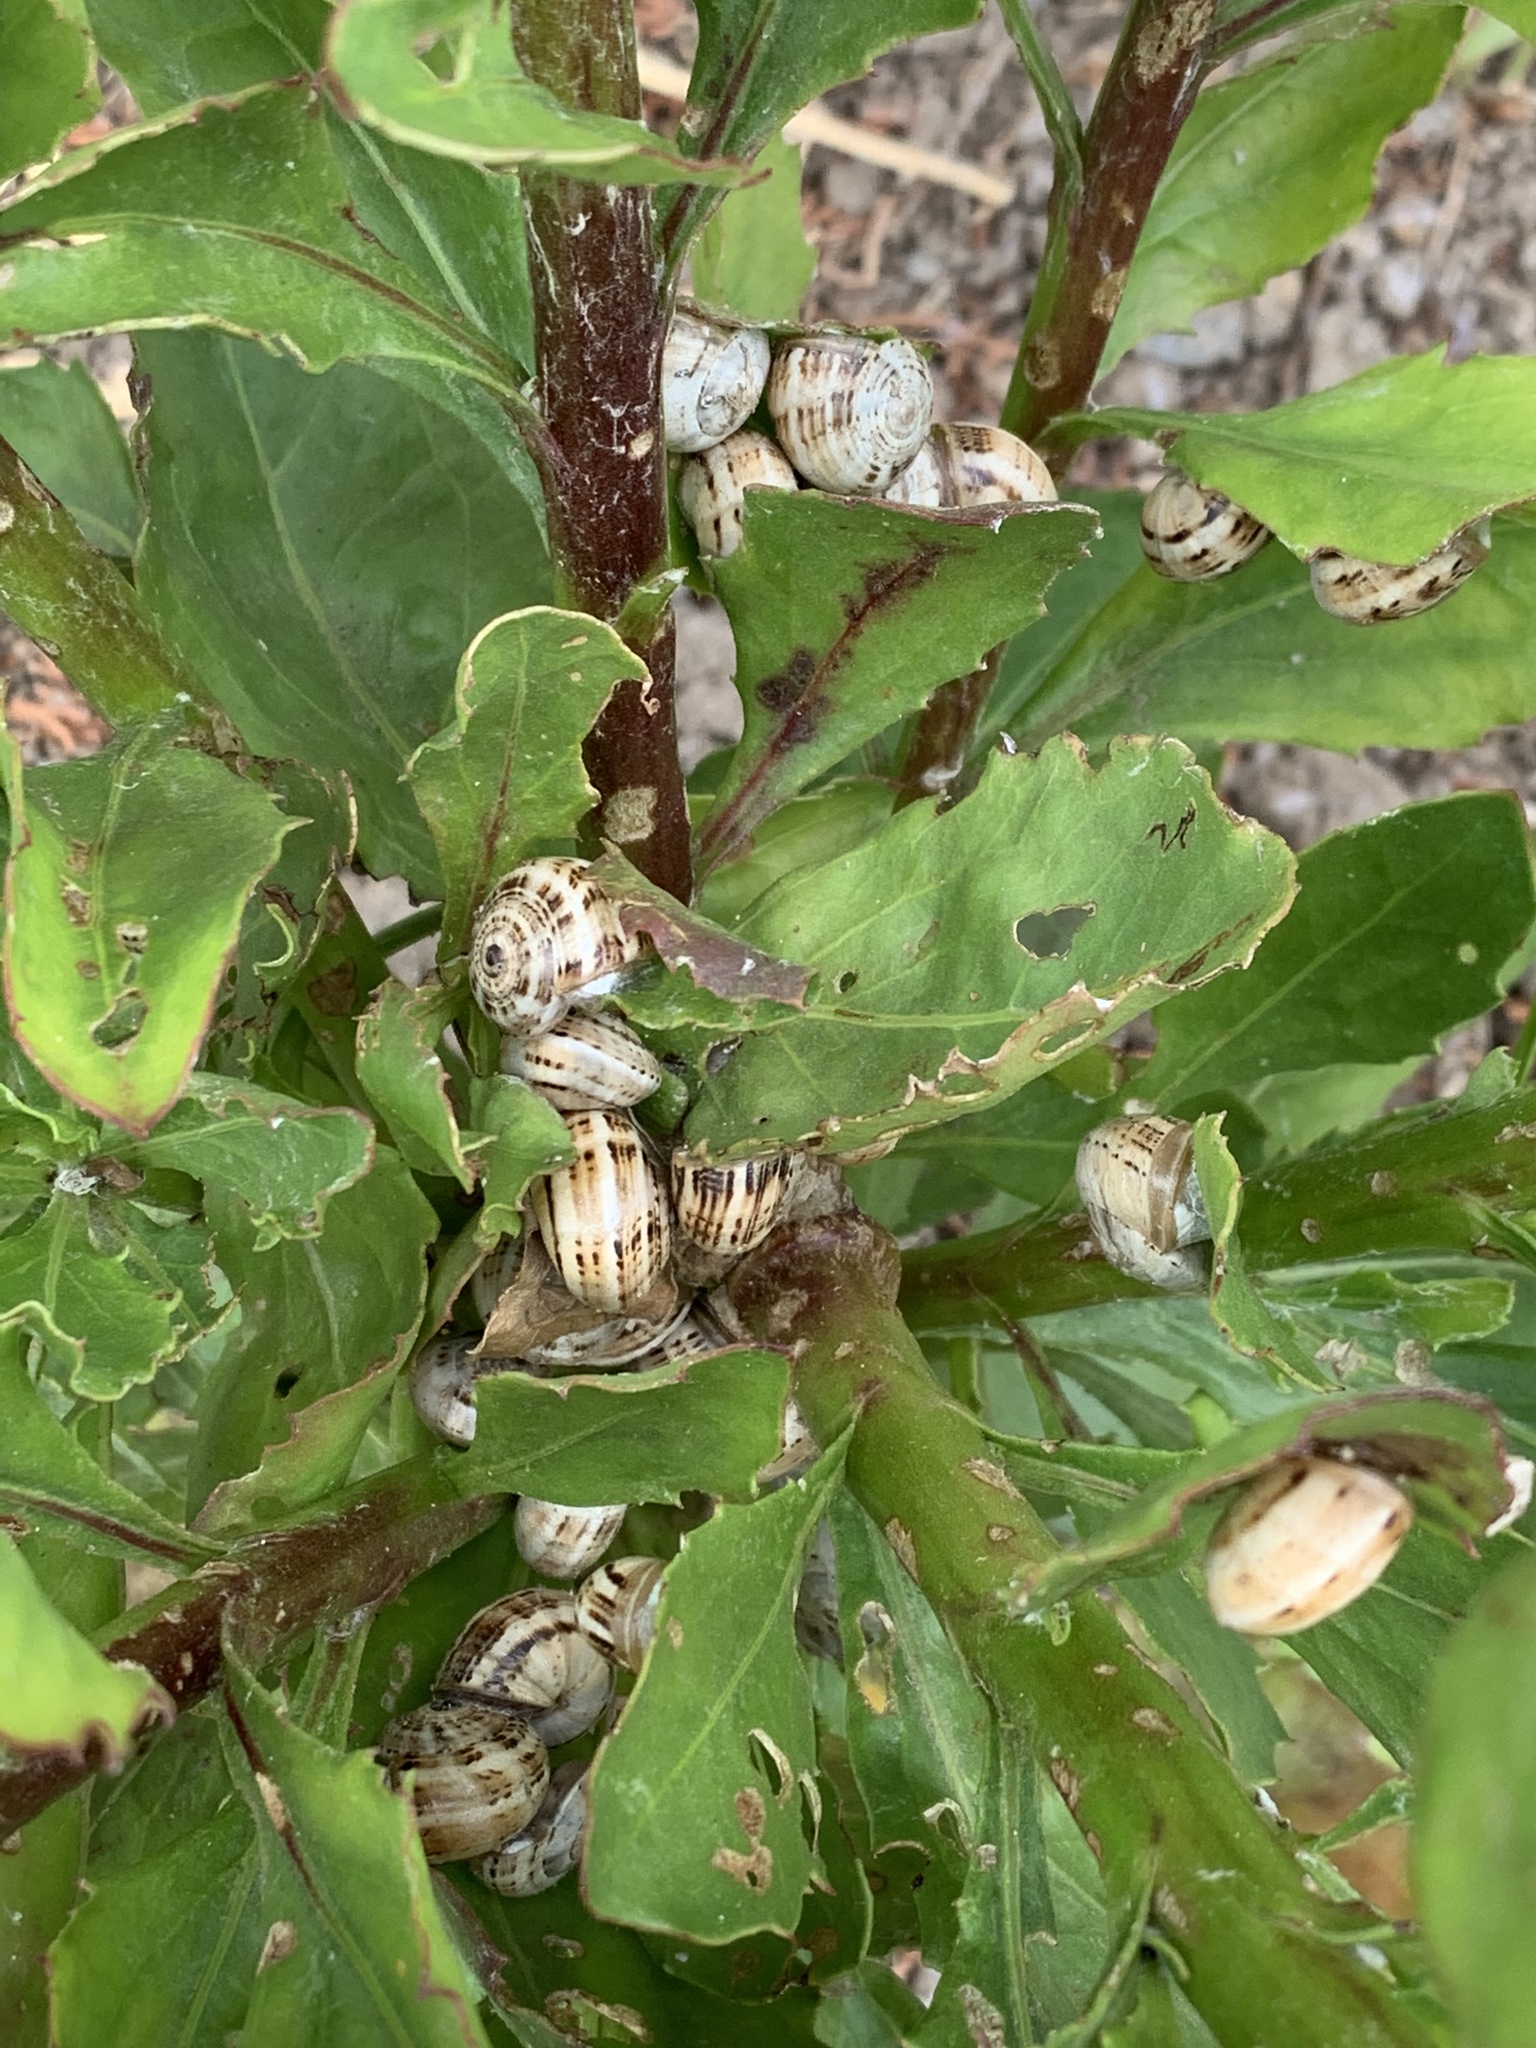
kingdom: Animalia
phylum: Mollusca
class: Gastropoda
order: Stylommatophora
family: Helicidae
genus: Theba
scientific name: Theba pisana
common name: White snail
